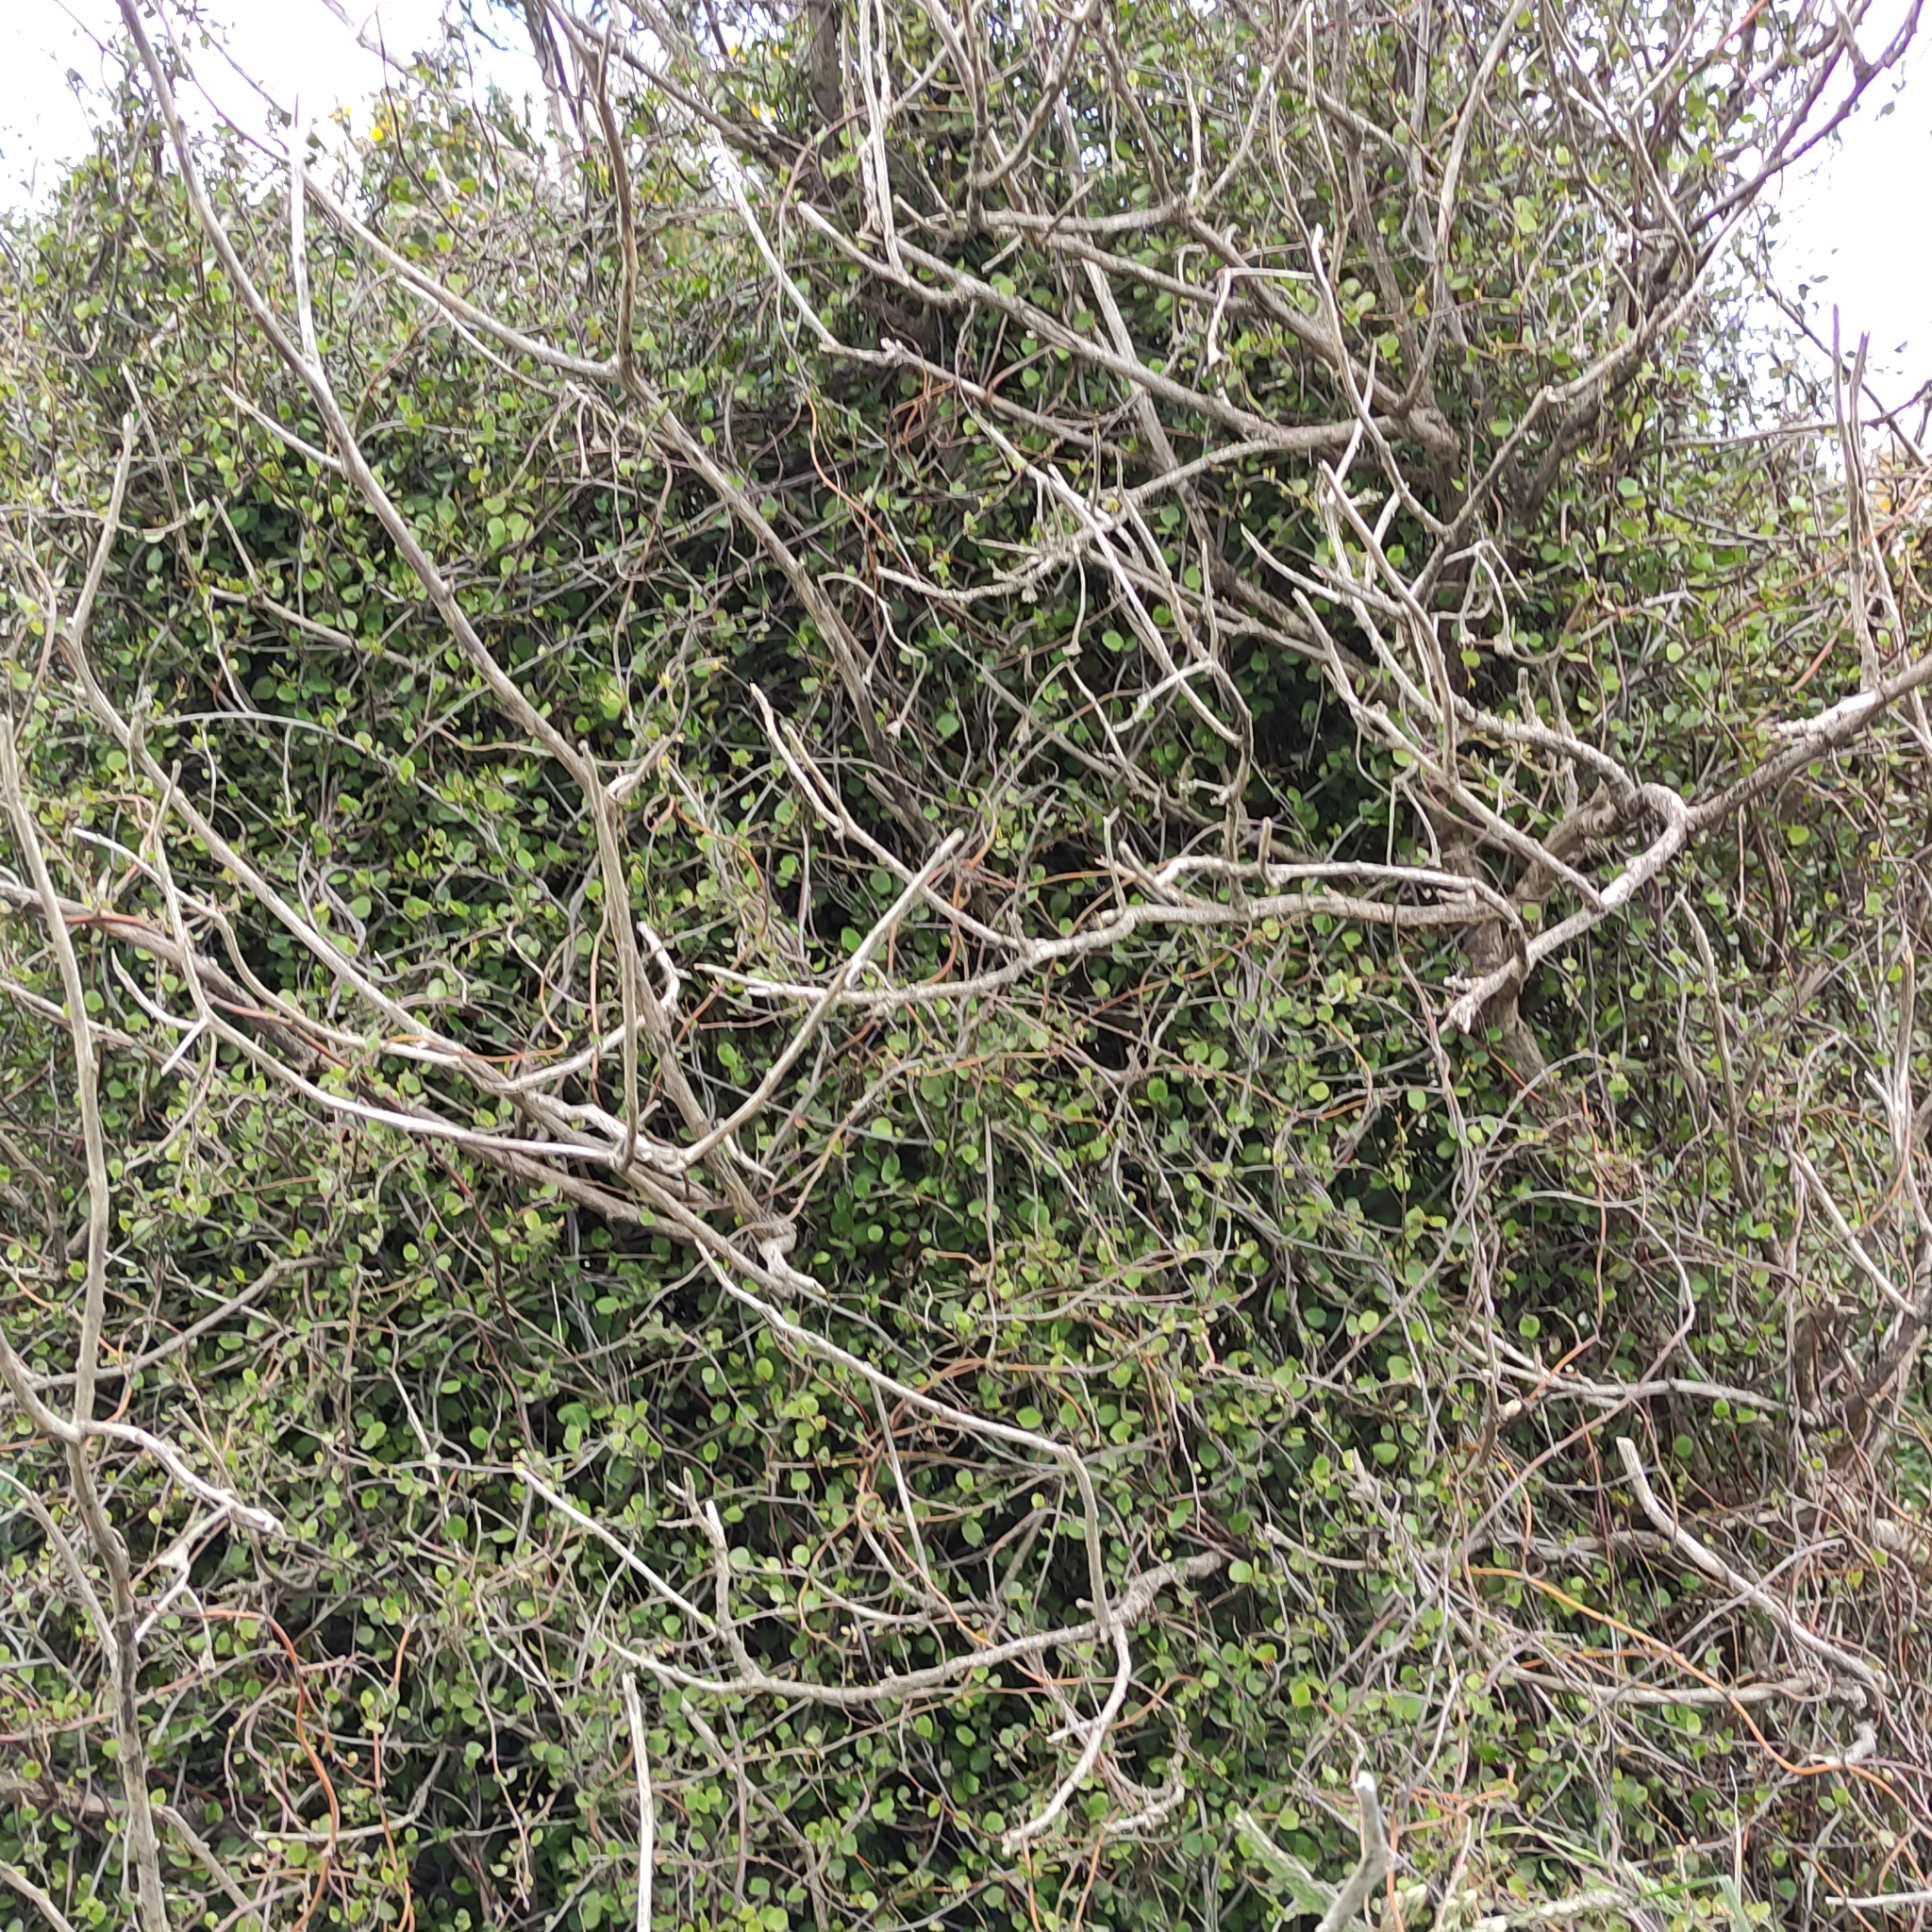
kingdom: Plantae
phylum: Tracheophyta
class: Magnoliopsida
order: Caryophyllales
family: Polygonaceae
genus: Muehlenbeckia
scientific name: Muehlenbeckia complexa
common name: Wireplant
